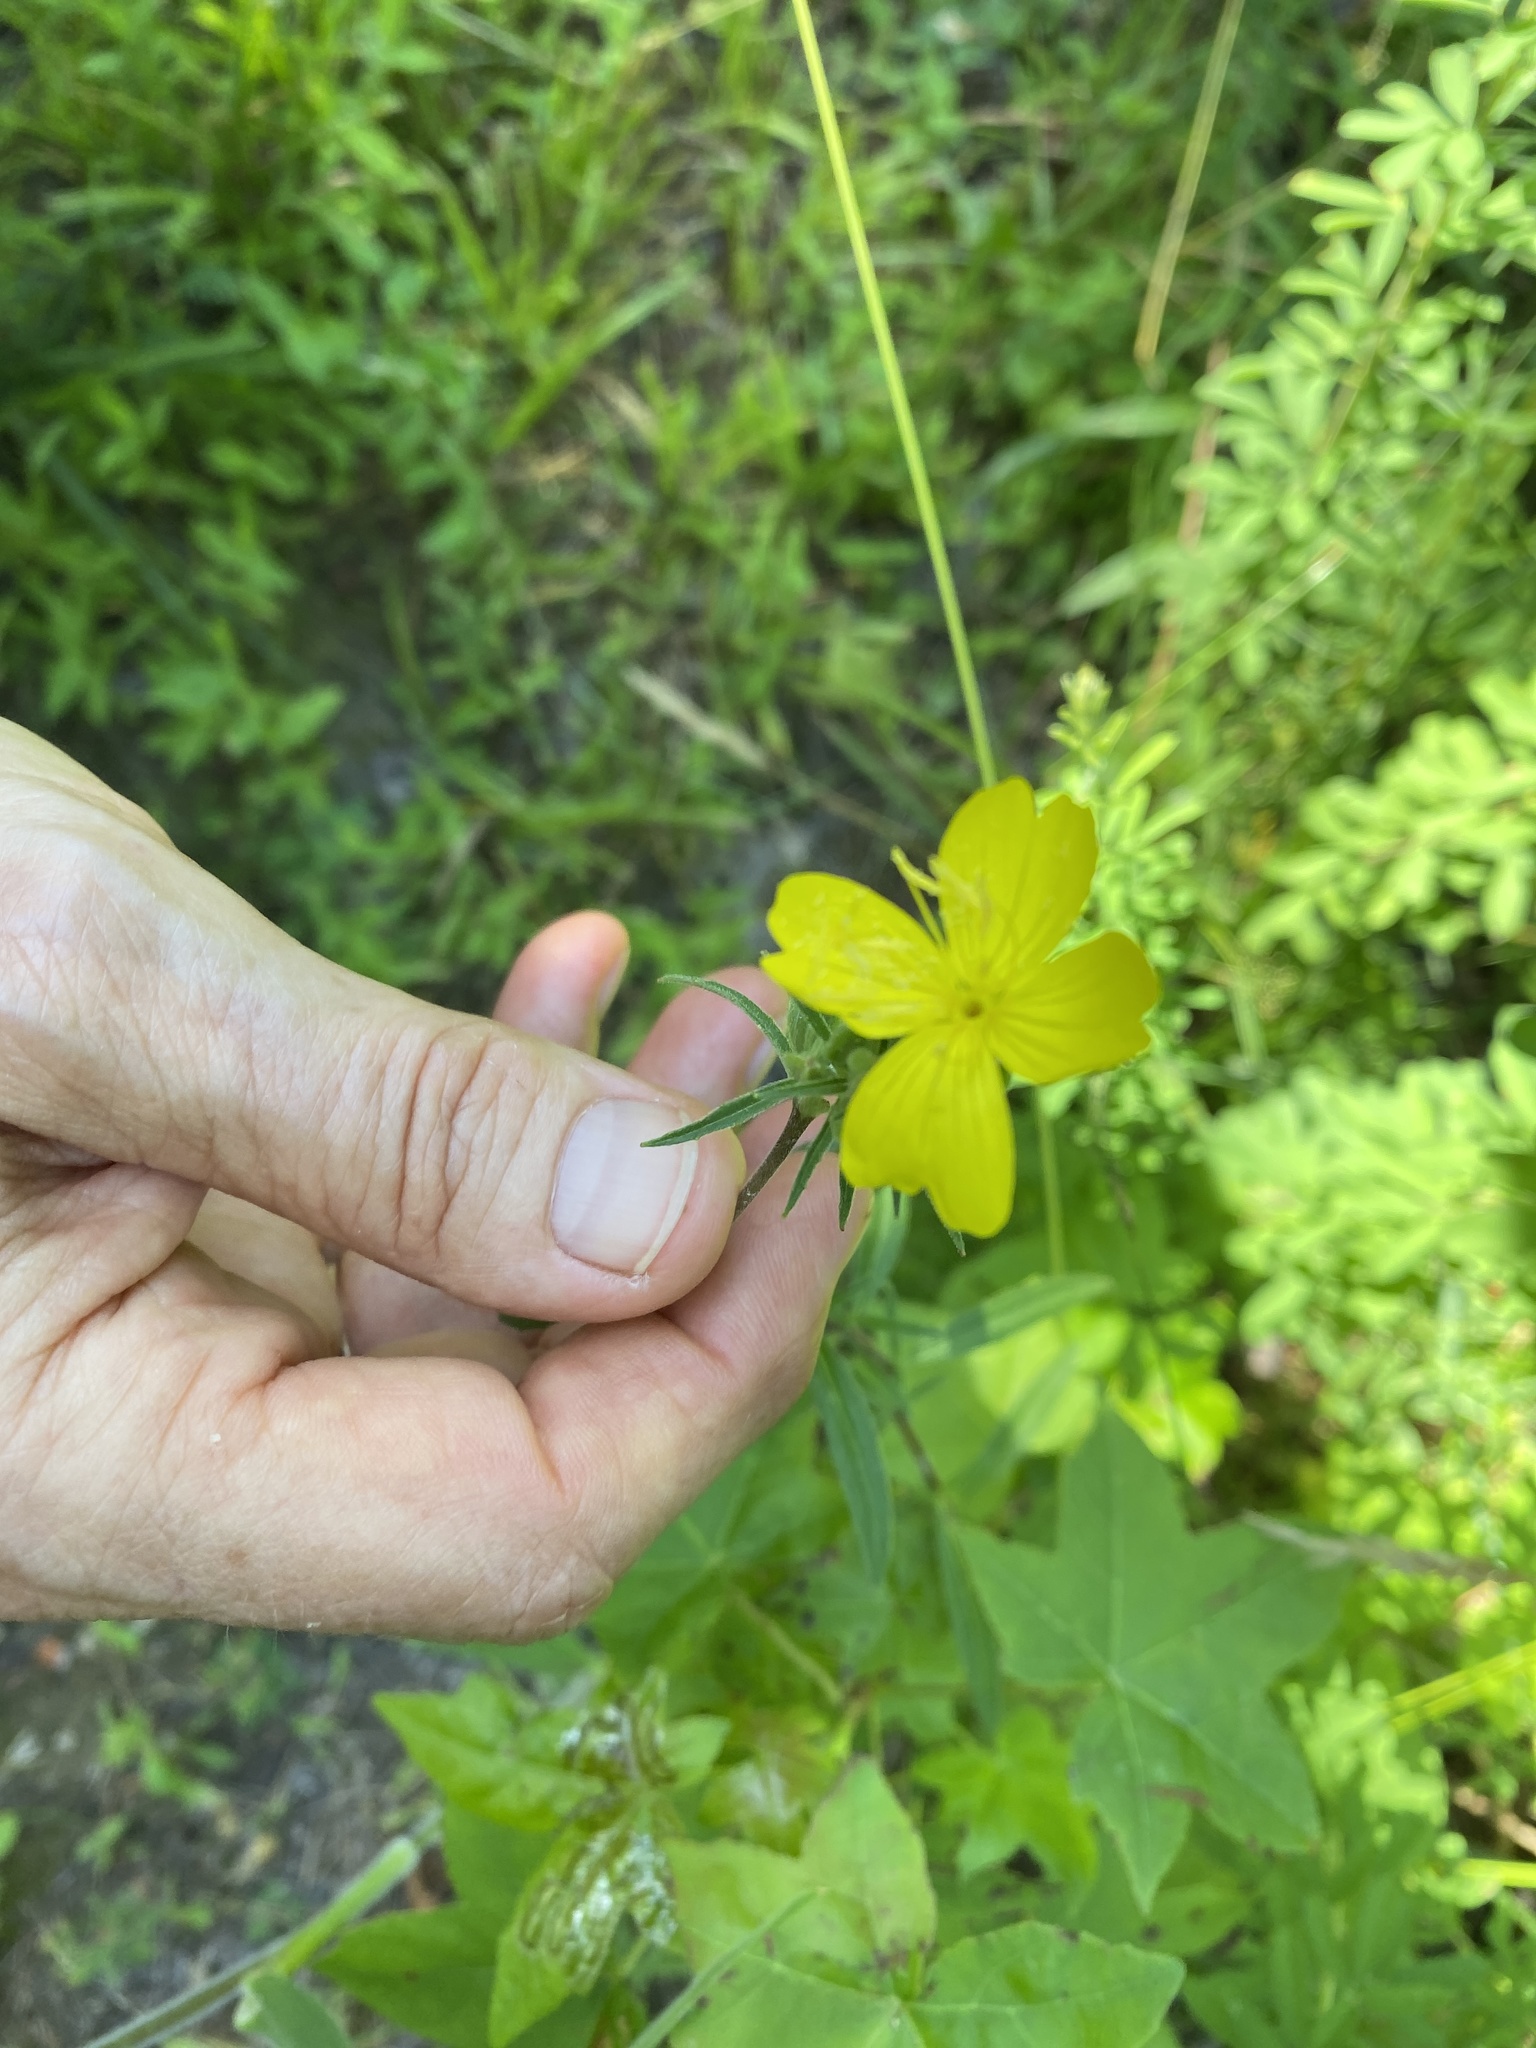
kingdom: Plantae
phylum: Tracheophyta
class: Magnoliopsida
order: Myrtales
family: Onagraceae
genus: Oenothera
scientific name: Oenothera fruticosa
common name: Southern sundrops
